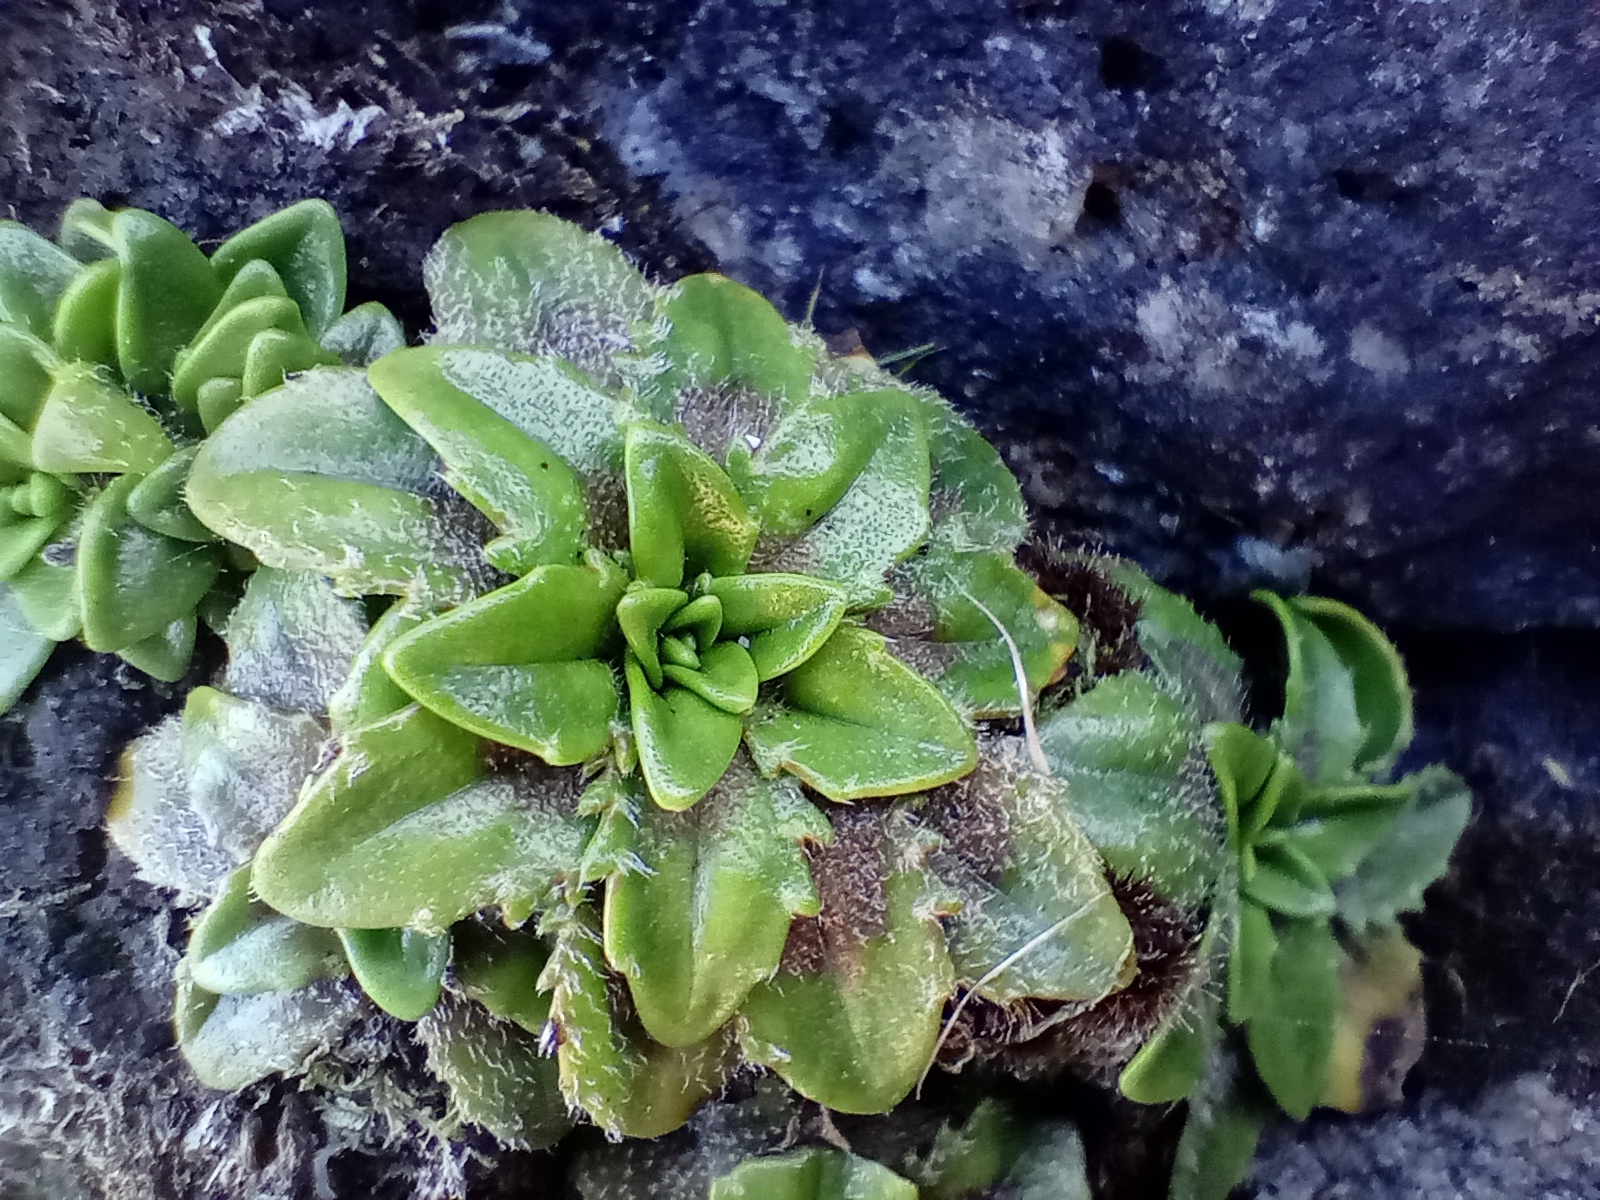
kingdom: Plantae
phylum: Tracheophyta
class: Magnoliopsida
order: Lamiales
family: Plantaginaceae
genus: Plantago
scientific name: Plantago triandra
